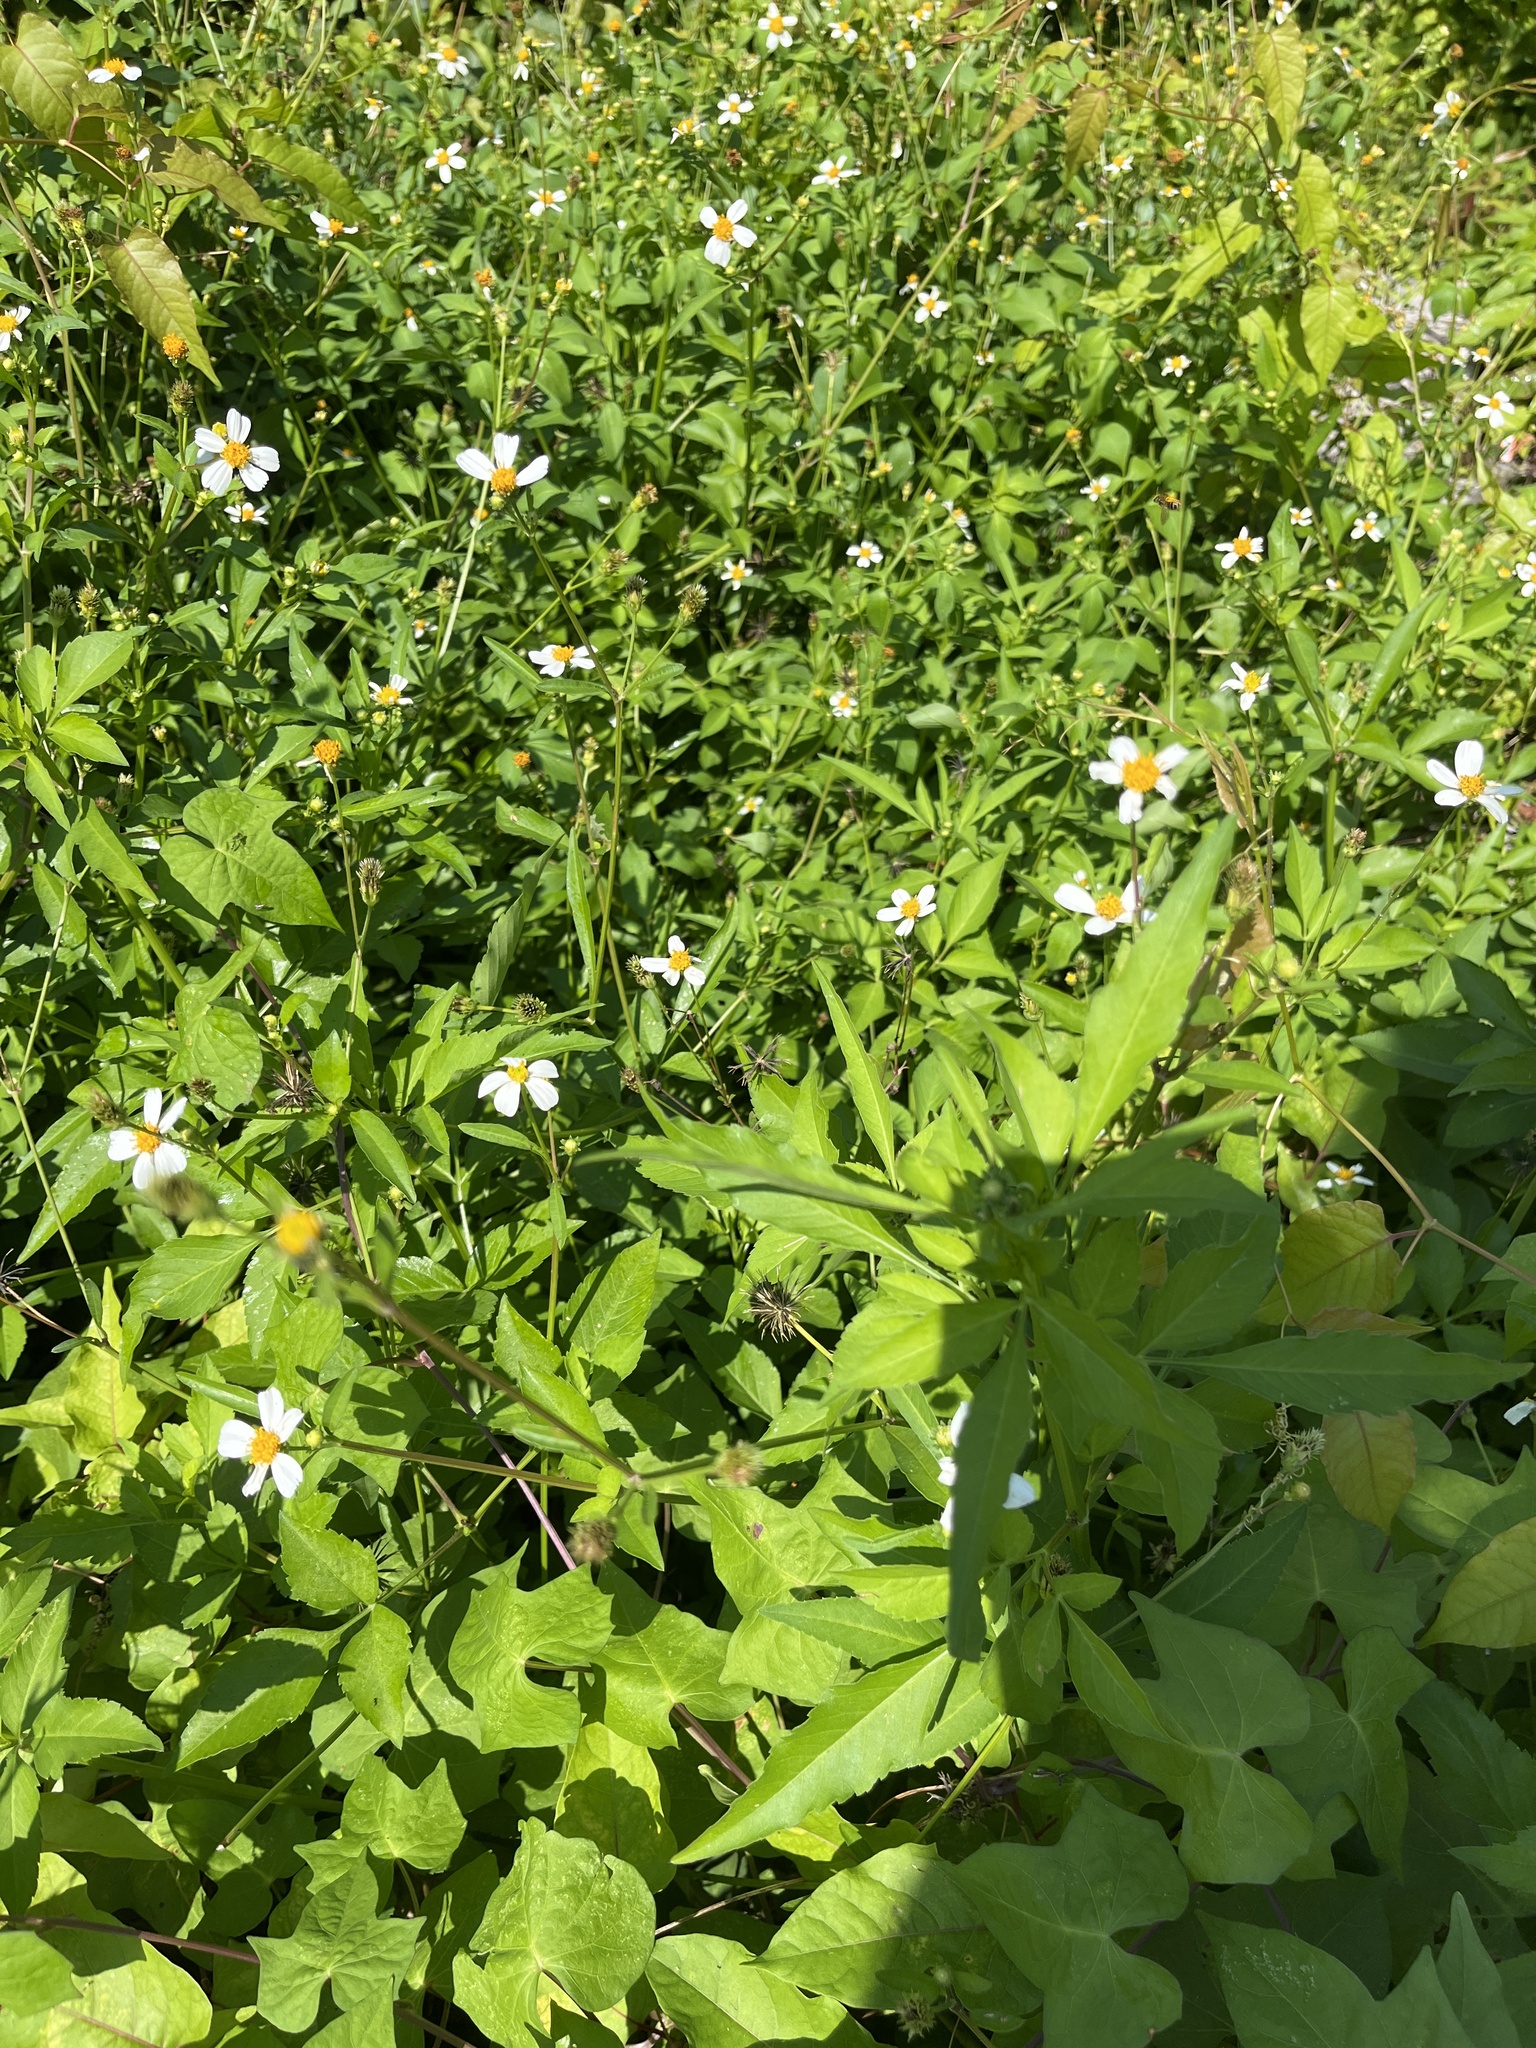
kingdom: Plantae
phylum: Tracheophyta
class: Magnoliopsida
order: Asterales
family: Asteraceae
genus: Bidens
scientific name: Bidens alba
